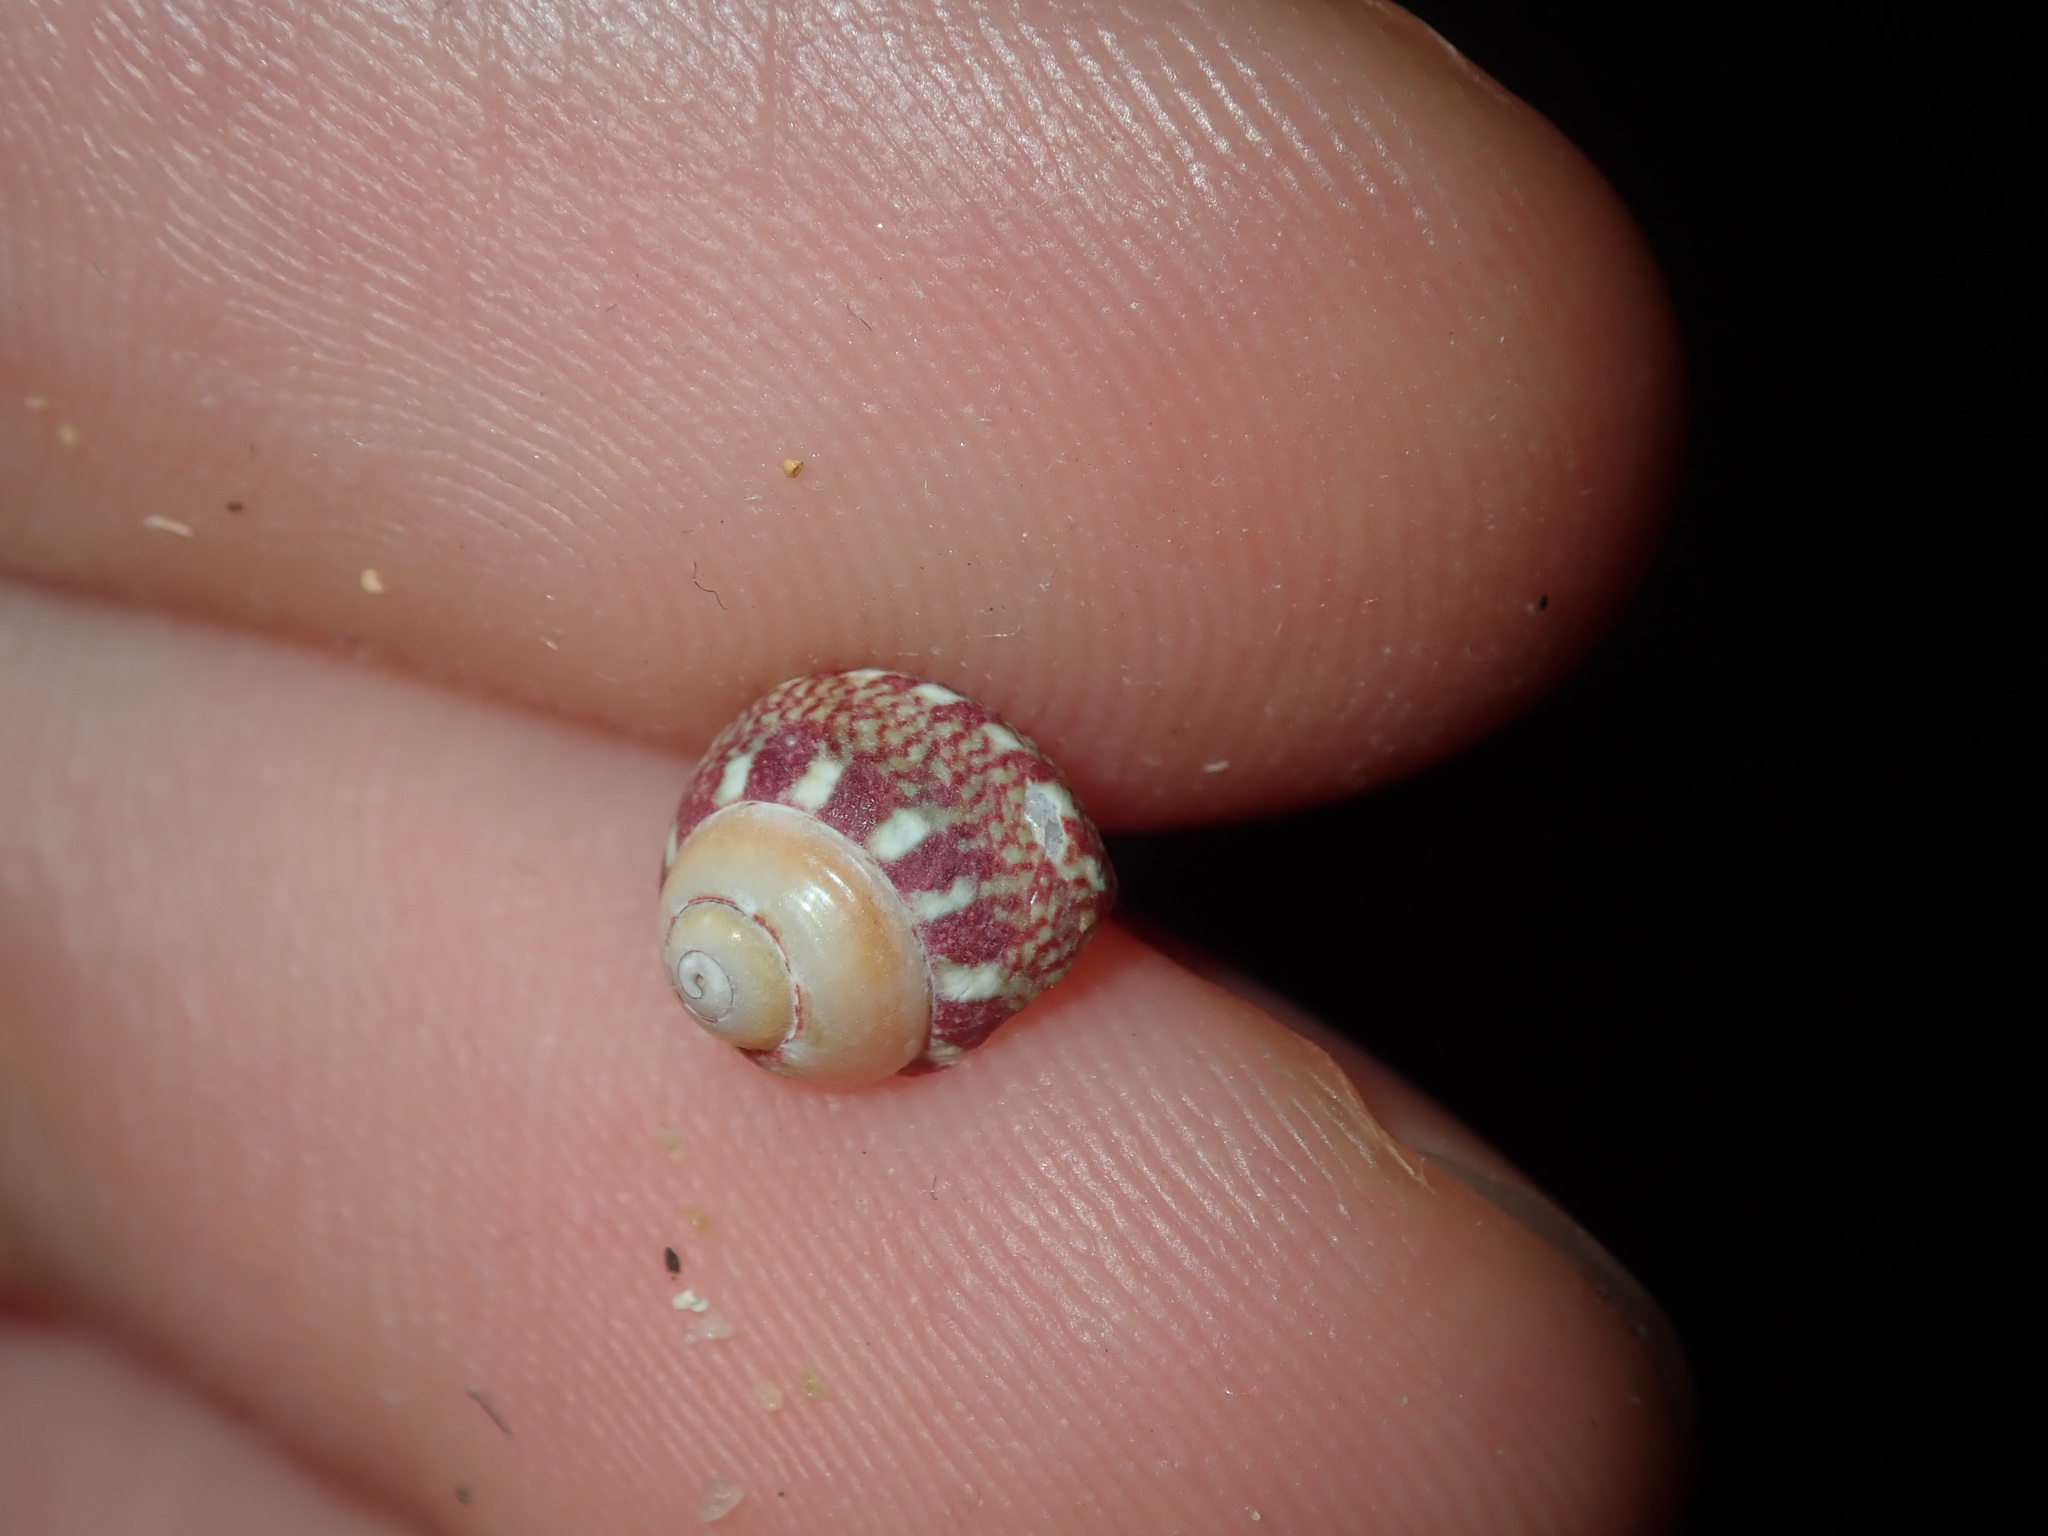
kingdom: Animalia
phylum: Mollusca
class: Gastropoda
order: Trochida
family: Trochidae
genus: Cantharidella
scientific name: Cantharidella picturata
